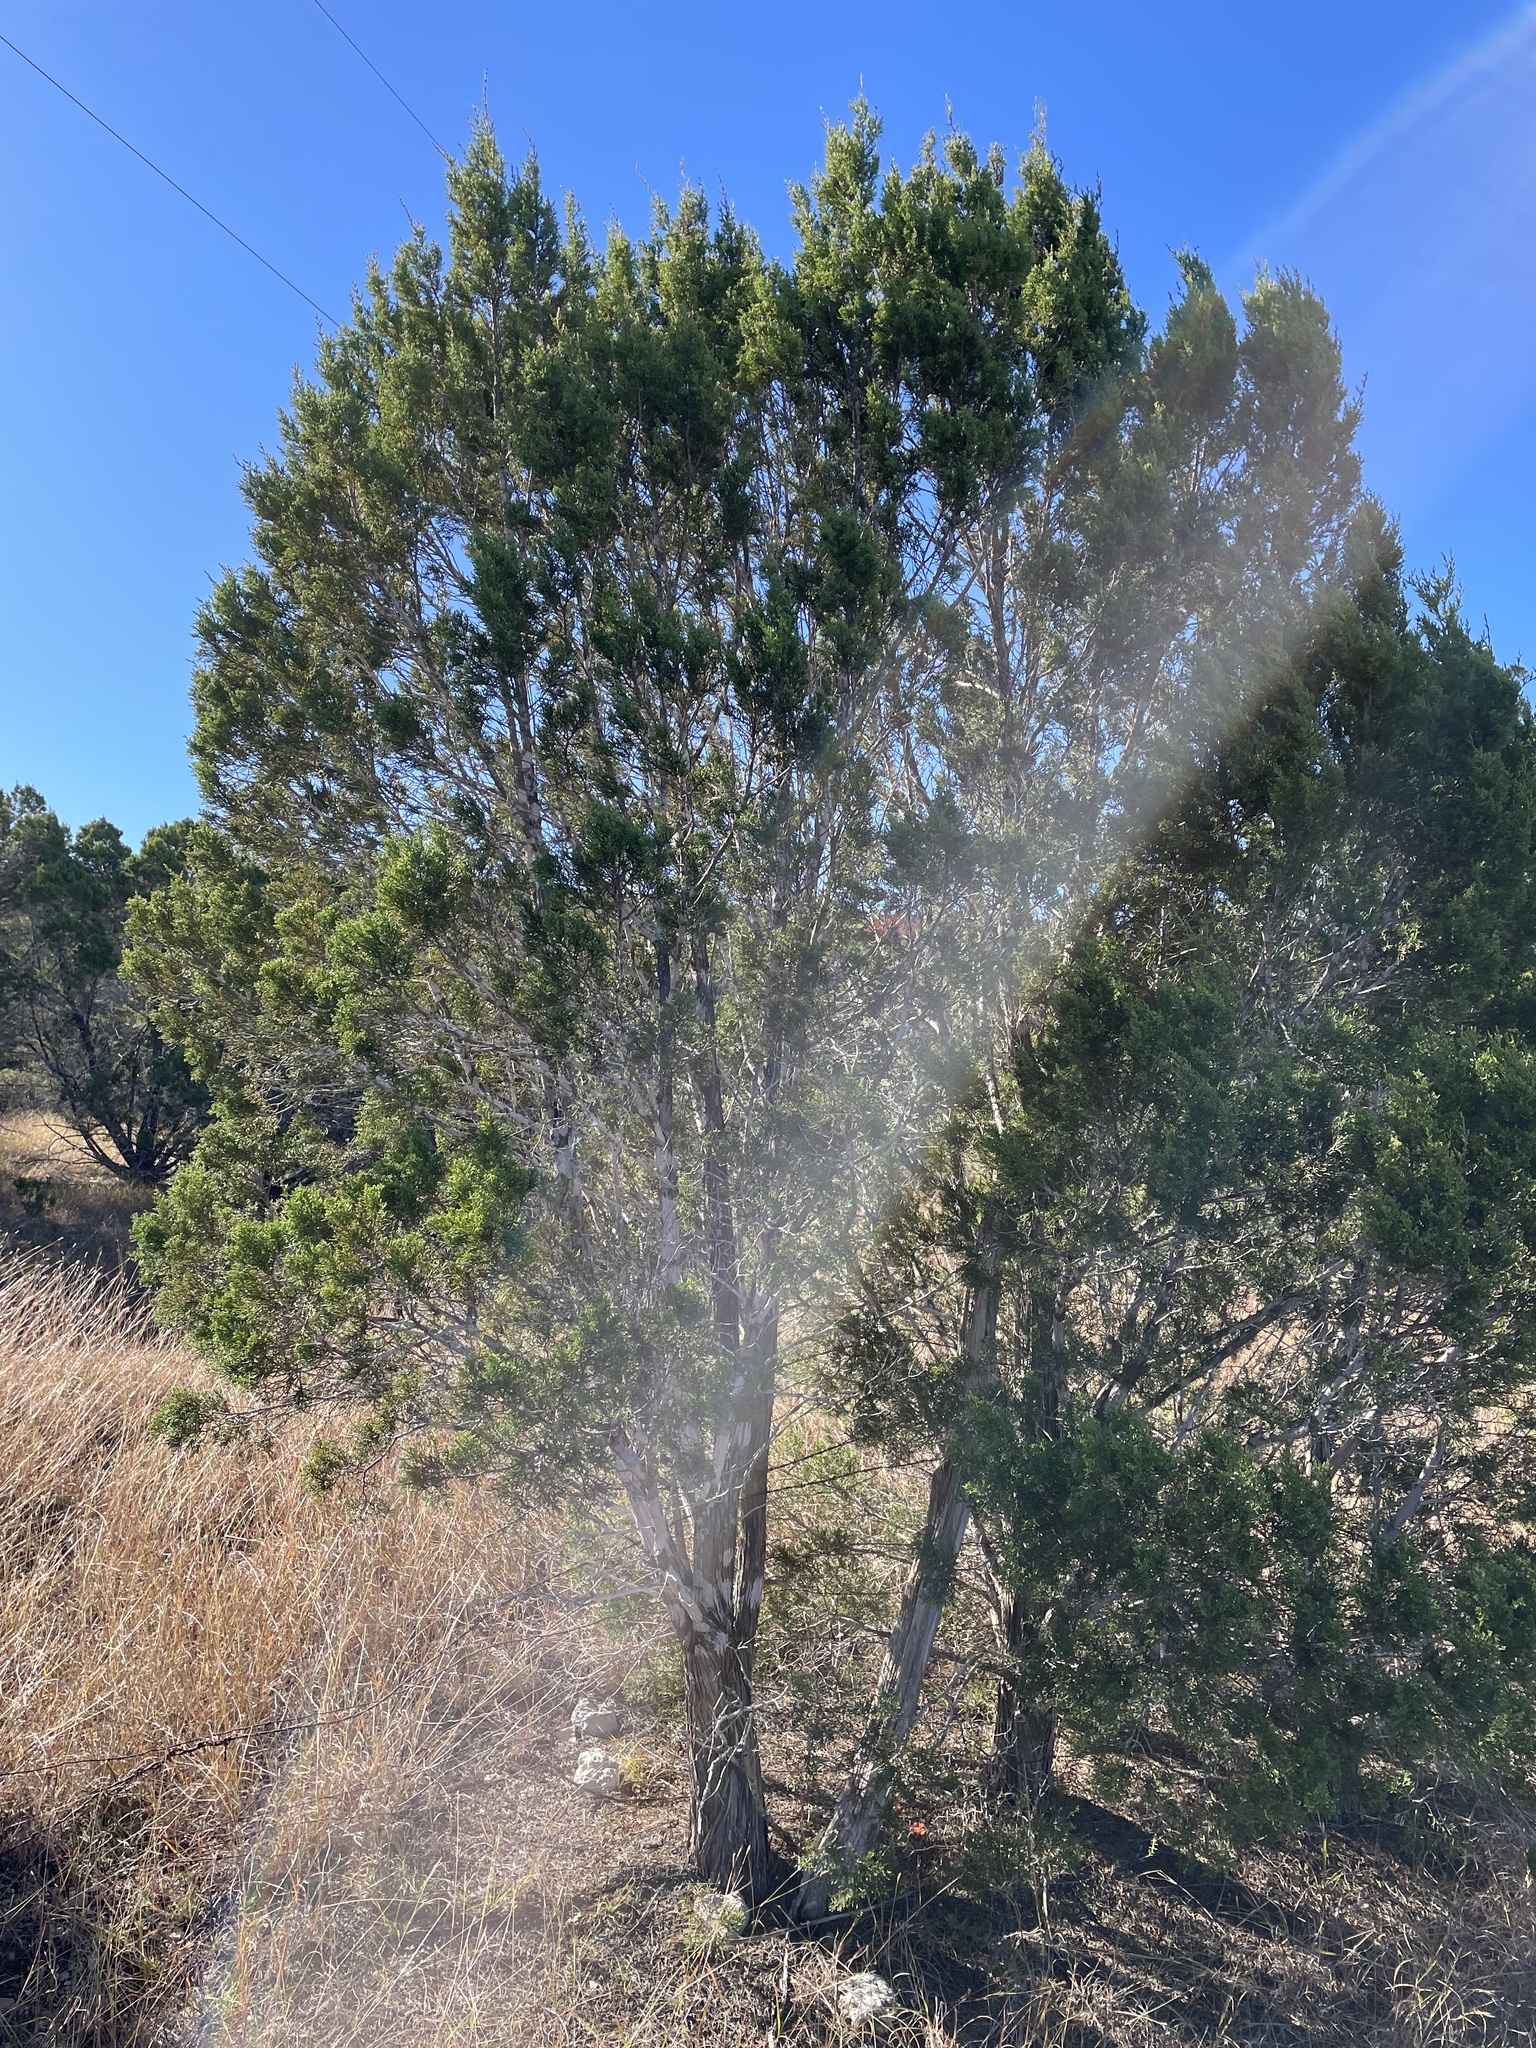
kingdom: Plantae
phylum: Tracheophyta
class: Pinopsida
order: Pinales
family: Cupressaceae
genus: Juniperus
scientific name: Juniperus ashei
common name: Mexican juniper
